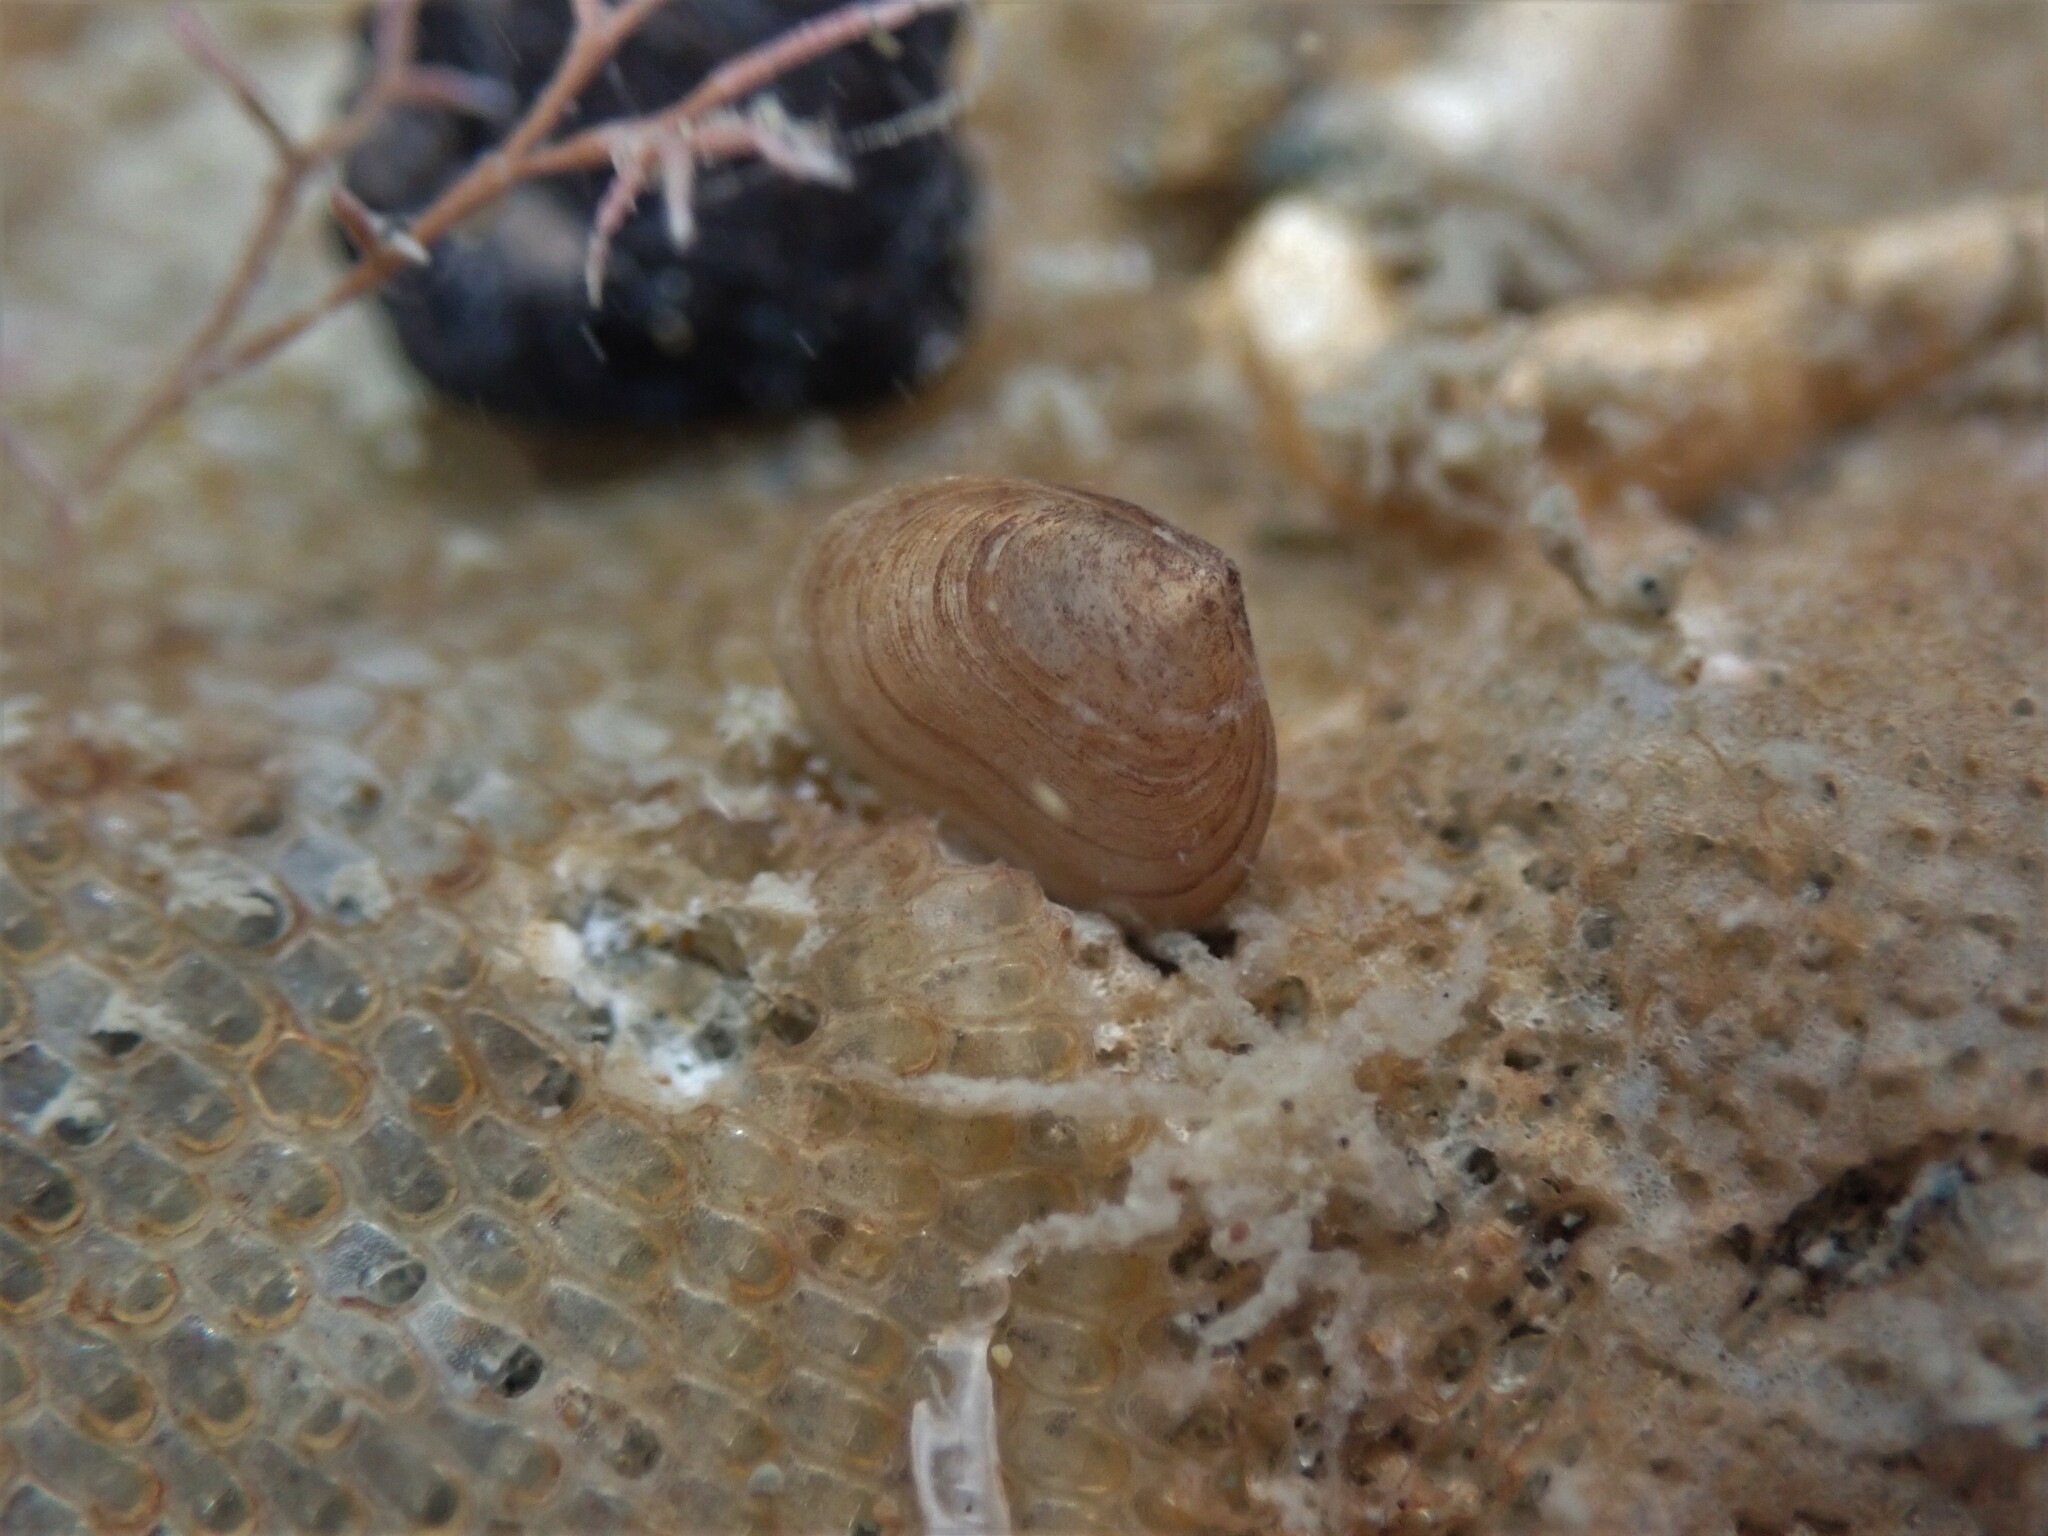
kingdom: Animalia
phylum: Mollusca
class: Bivalvia
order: Galeommatida
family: Lasaeidae
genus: Borniola
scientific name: Borniola reniformis
